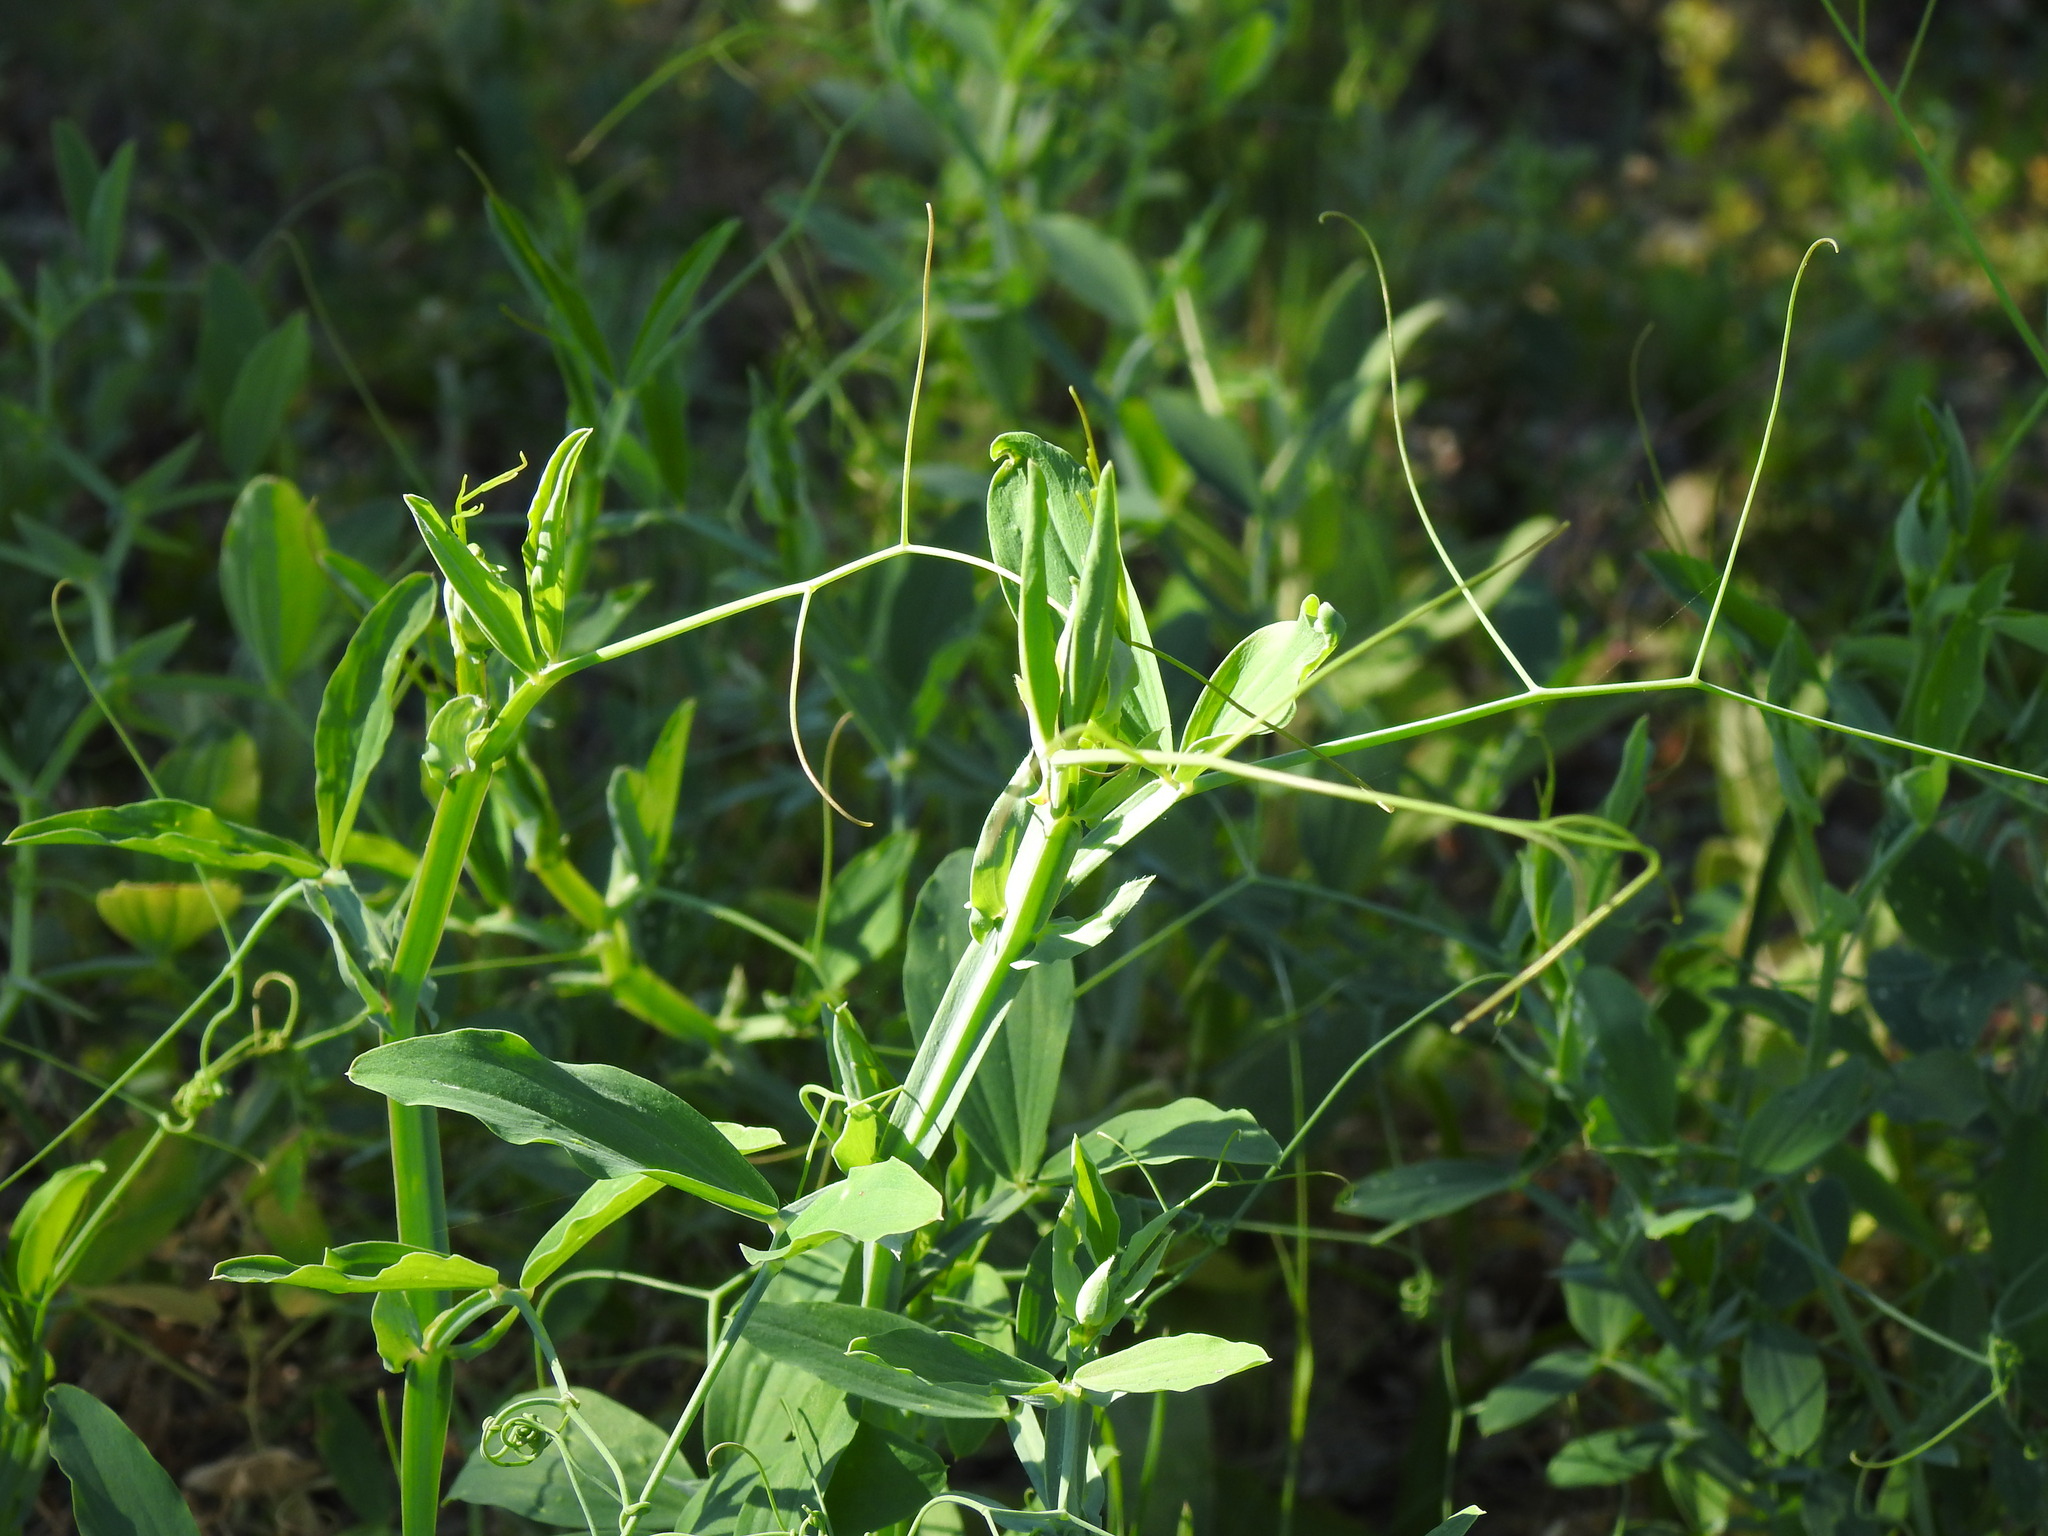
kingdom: Plantae
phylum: Tracheophyta
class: Magnoliopsida
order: Fabales
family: Fabaceae
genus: Lathyrus
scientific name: Lathyrus clymenum
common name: Spanish vetchling
